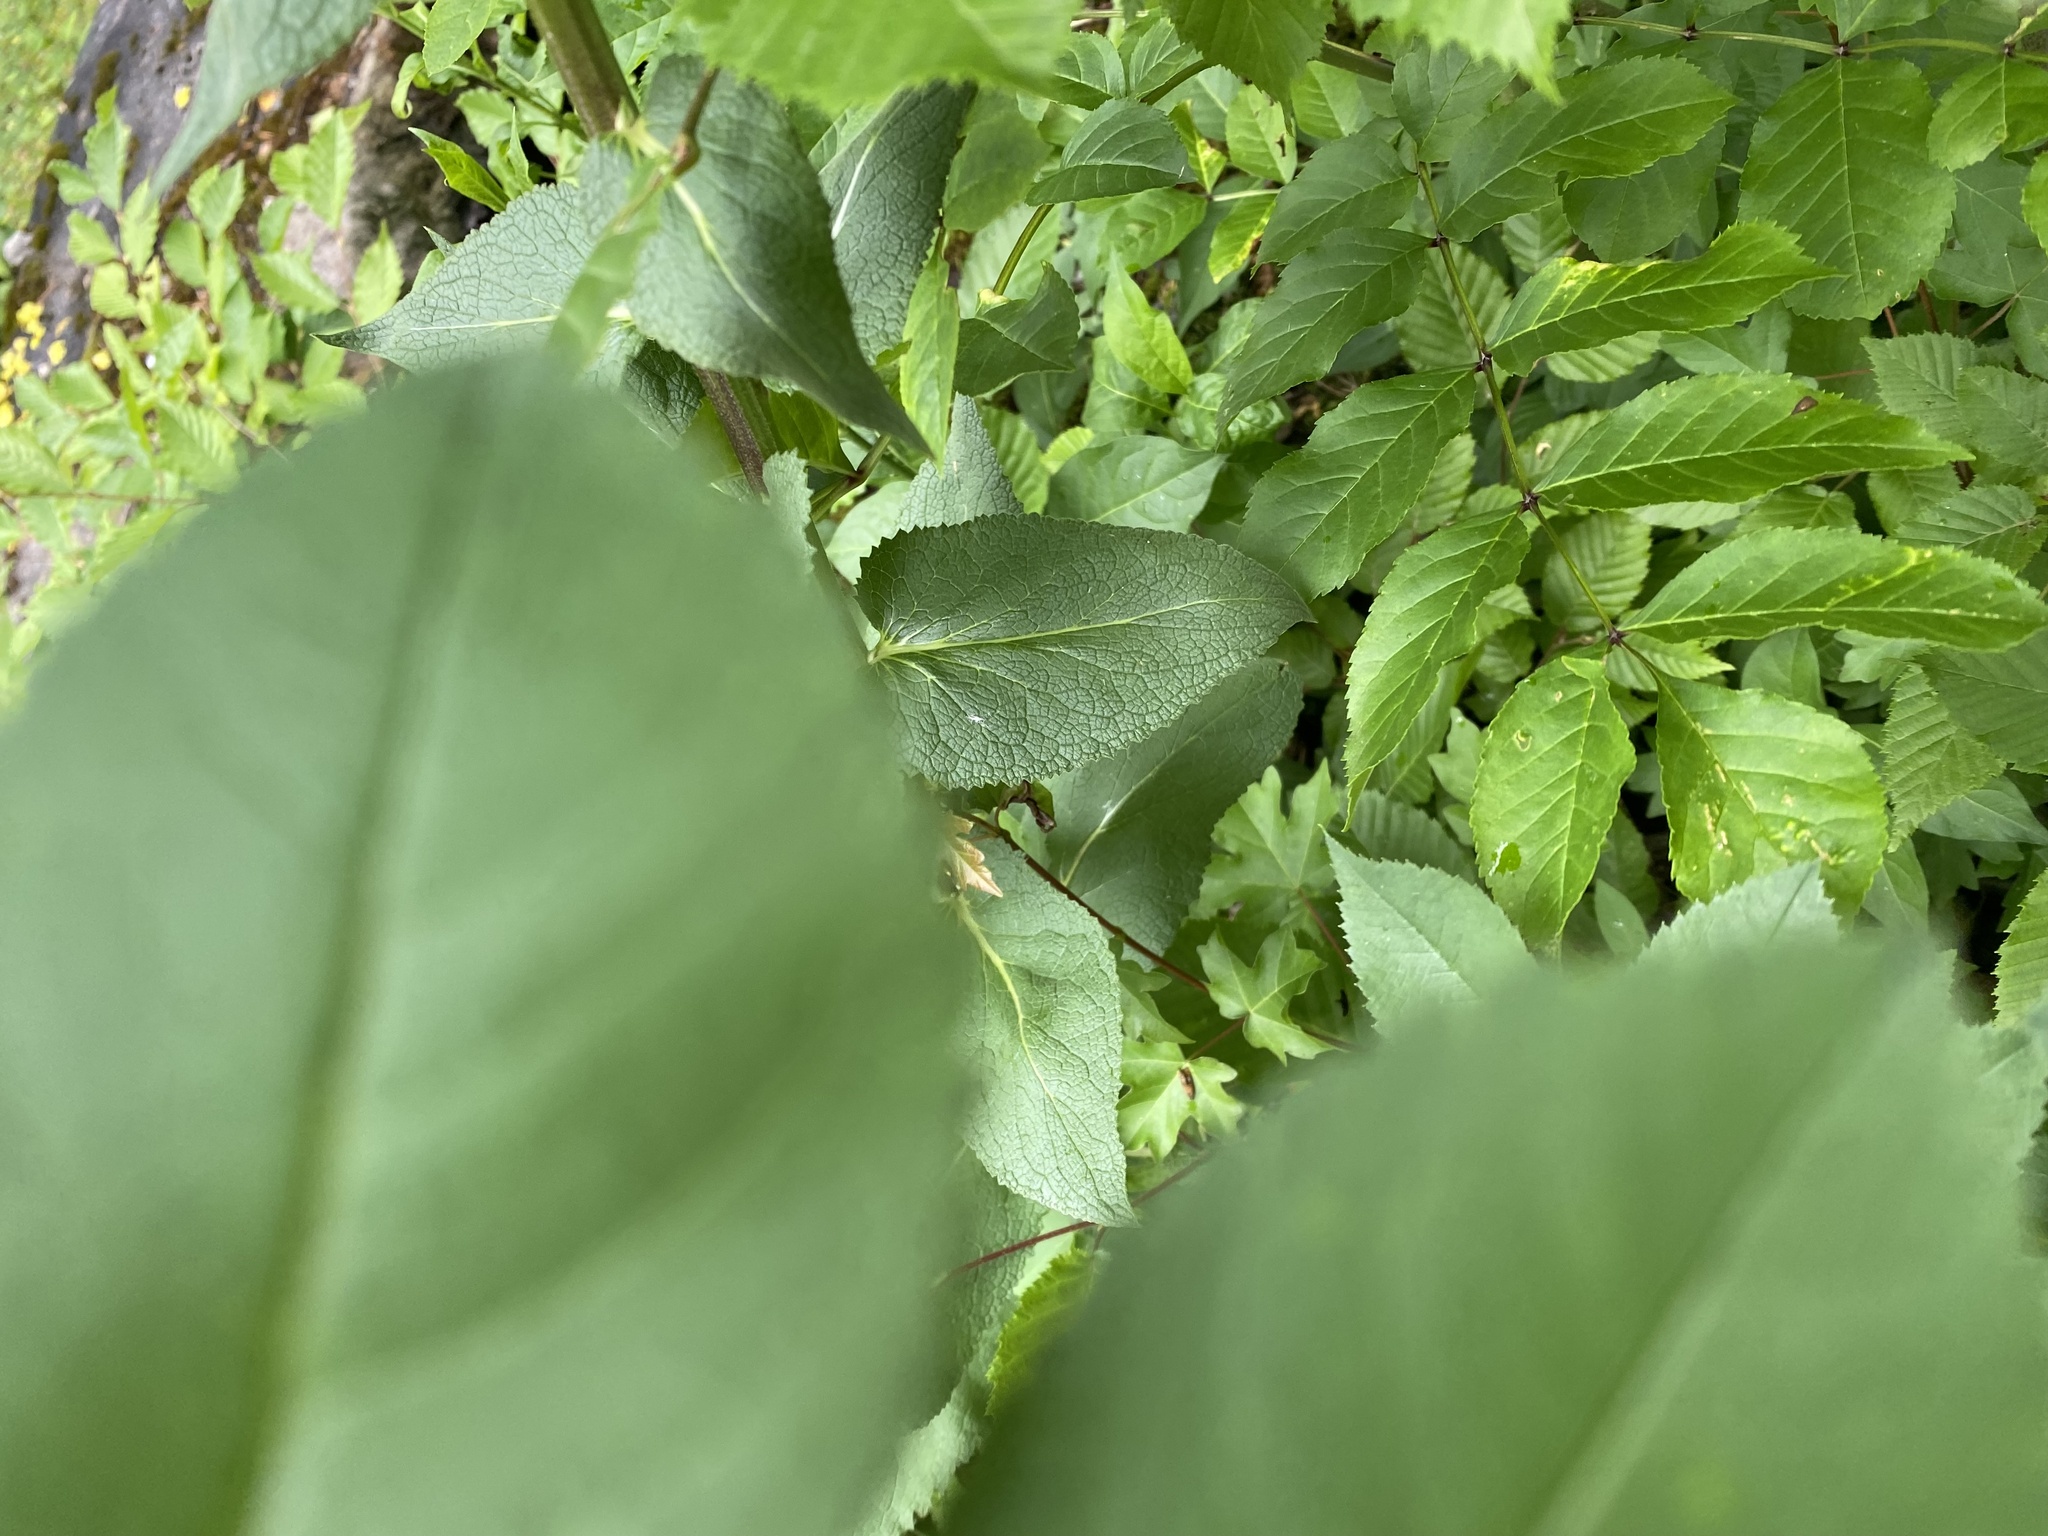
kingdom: Plantae
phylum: Tracheophyta
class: Magnoliopsida
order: Lamiales
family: Scrophulariaceae
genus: Verbascum
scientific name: Verbascum blattaria
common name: Moth mullein
